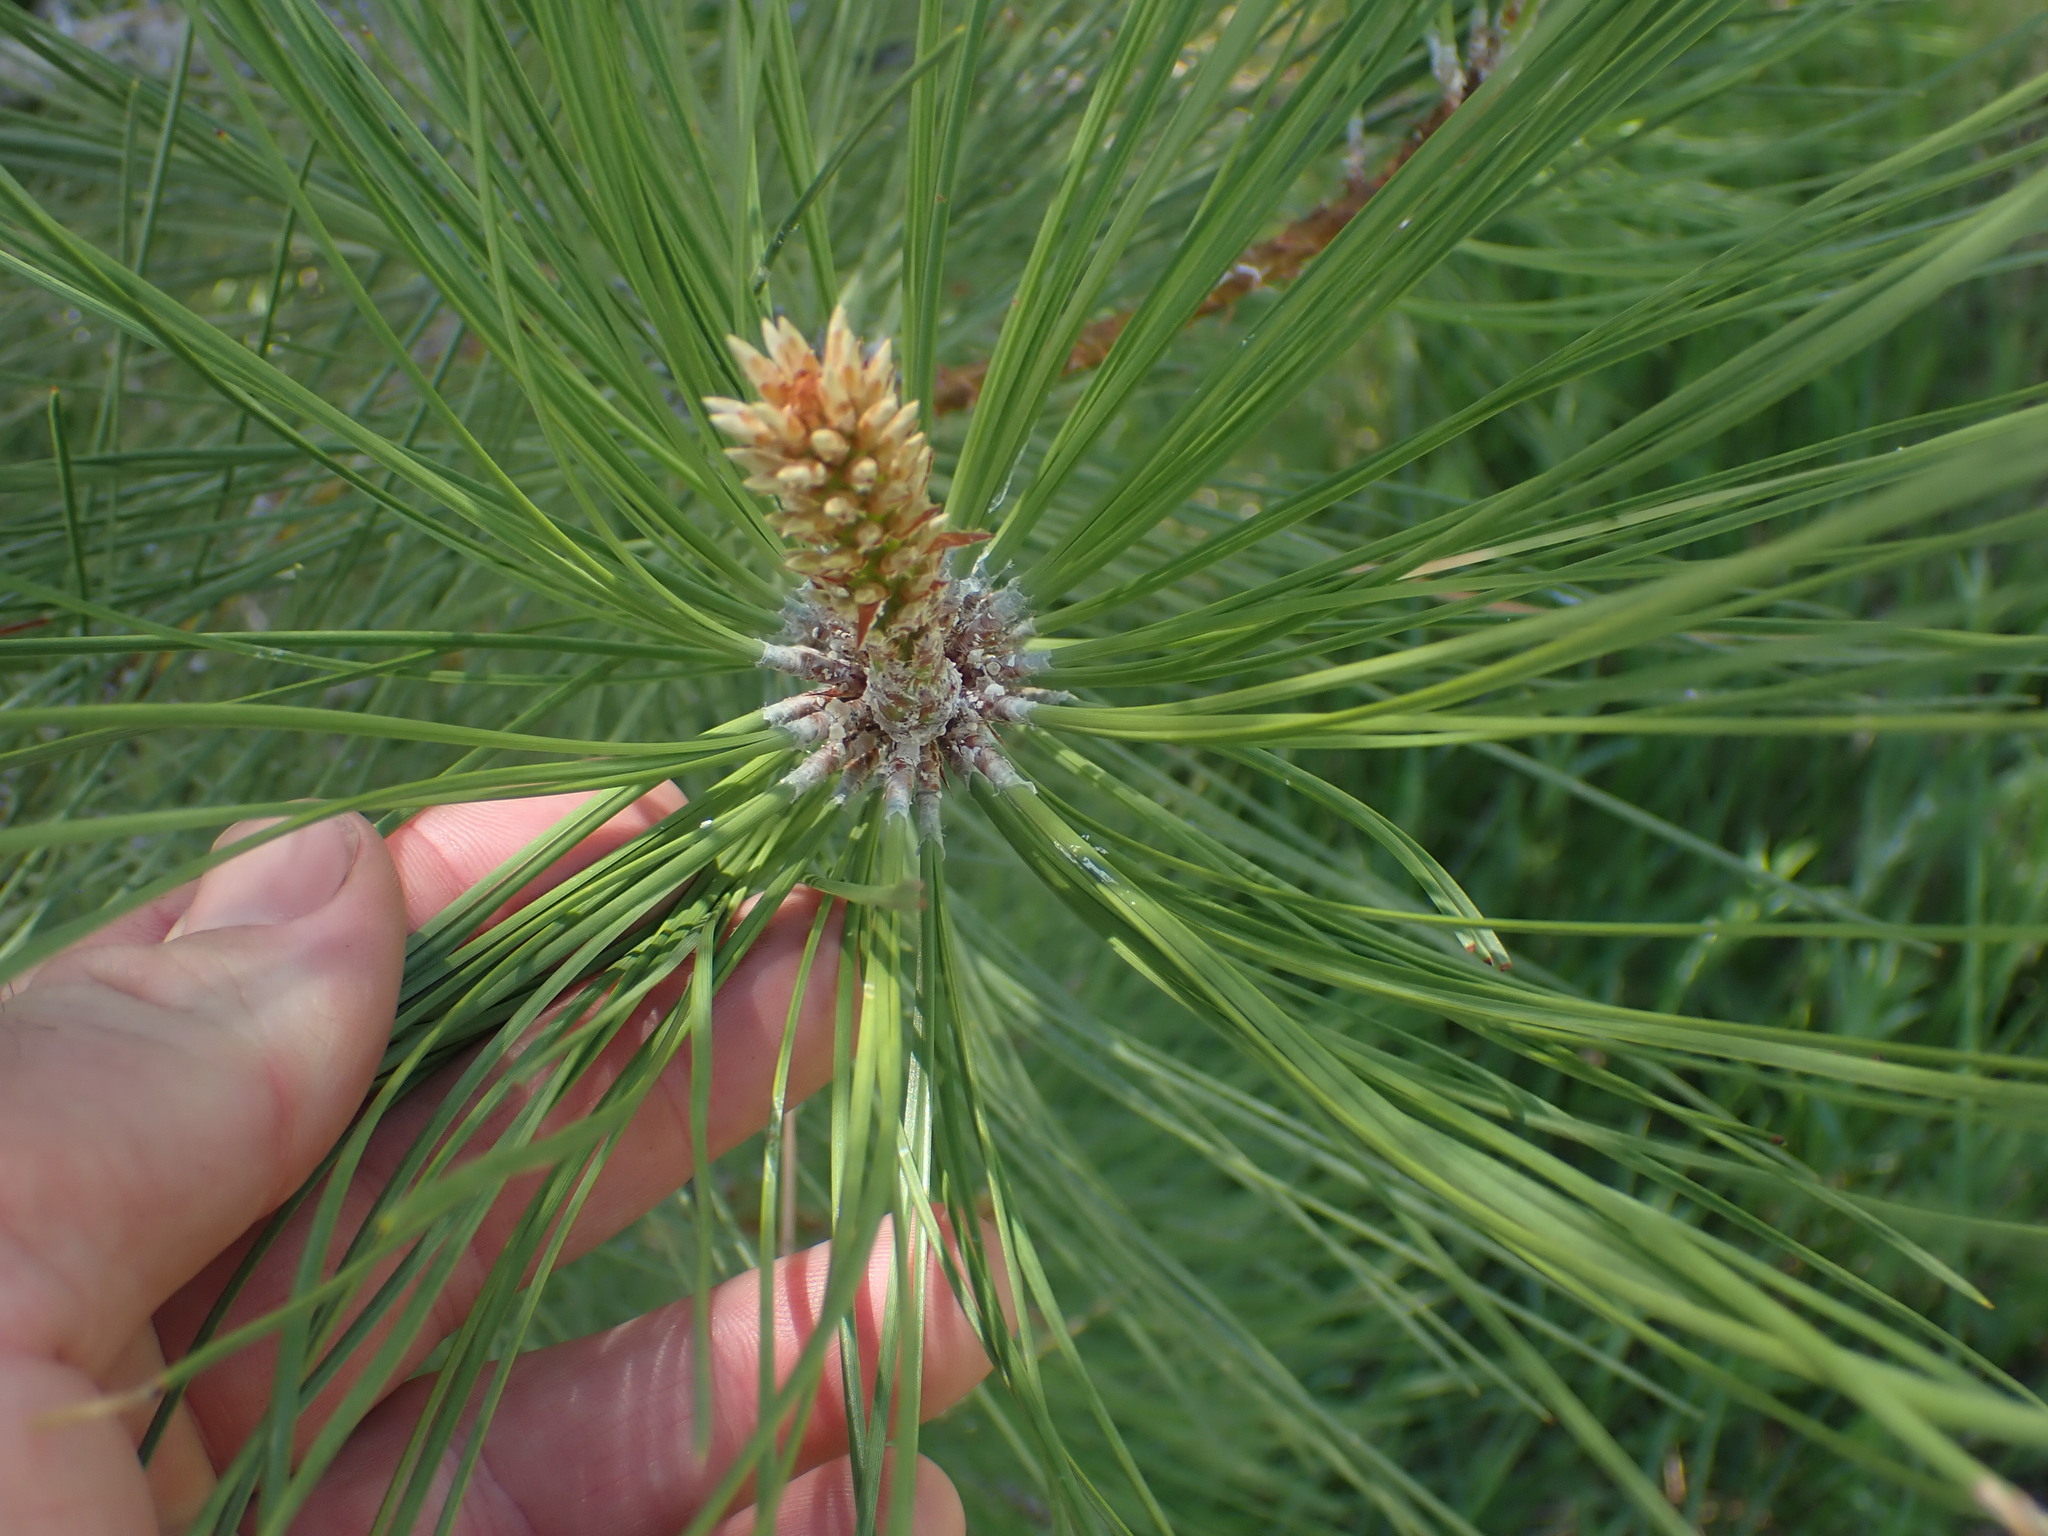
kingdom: Plantae
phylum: Tracheophyta
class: Pinopsida
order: Pinales
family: Pinaceae
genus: Pinus
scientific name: Pinus ponderosa
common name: Western yellow-pine
